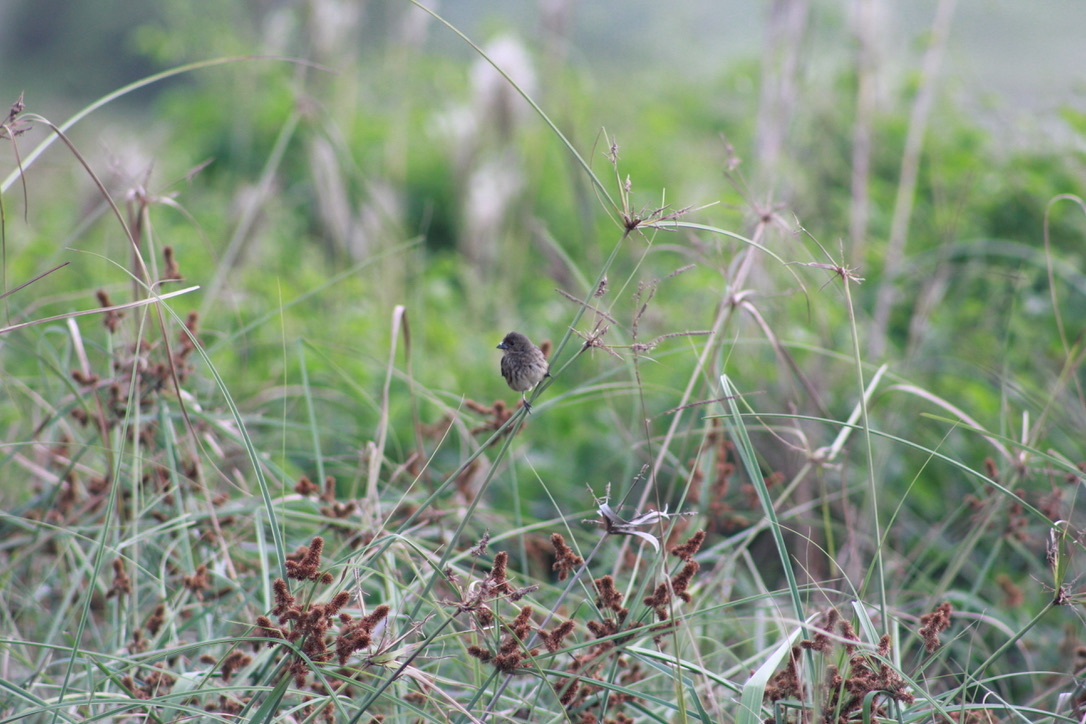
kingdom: Animalia
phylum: Chordata
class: Aves
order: Passeriformes
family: Thraupidae
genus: Volatinia
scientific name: Volatinia jacarina
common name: Blue-black grassquit
